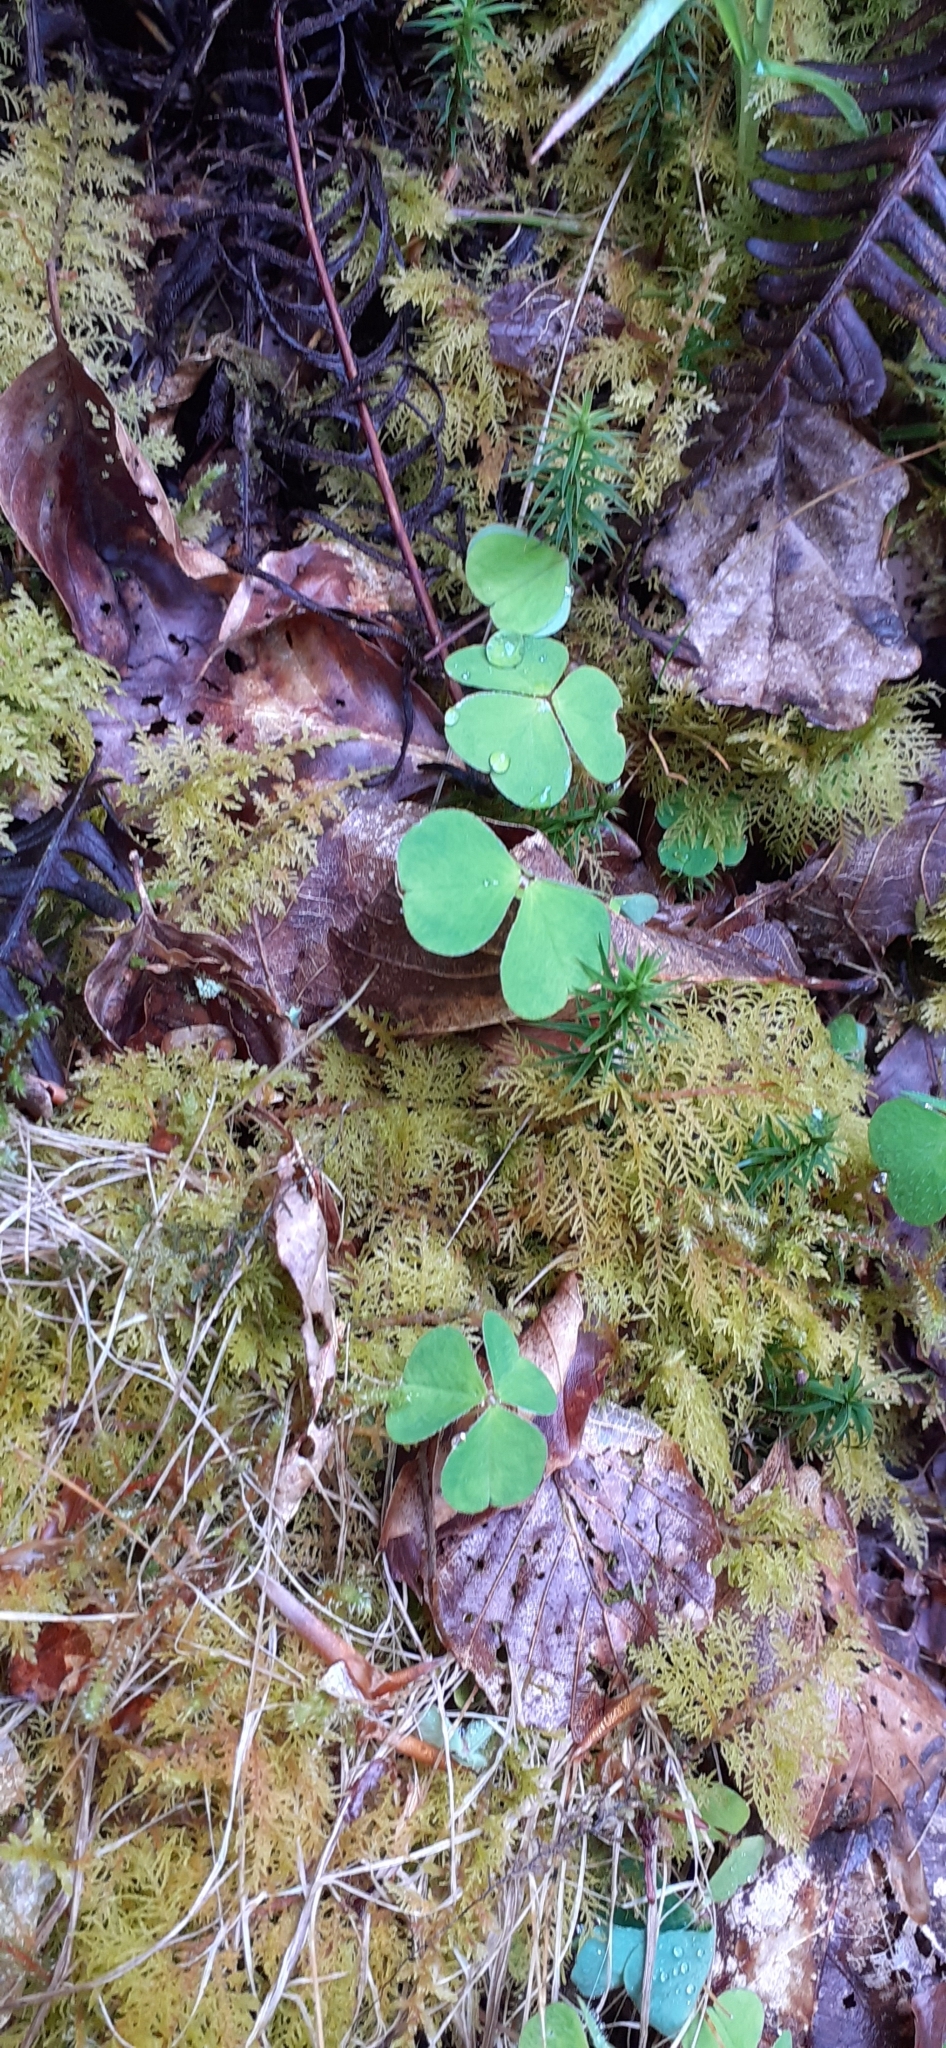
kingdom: Plantae
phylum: Tracheophyta
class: Magnoliopsida
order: Oxalidales
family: Oxalidaceae
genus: Oxalis
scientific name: Oxalis acetosella
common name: Wood-sorrel
